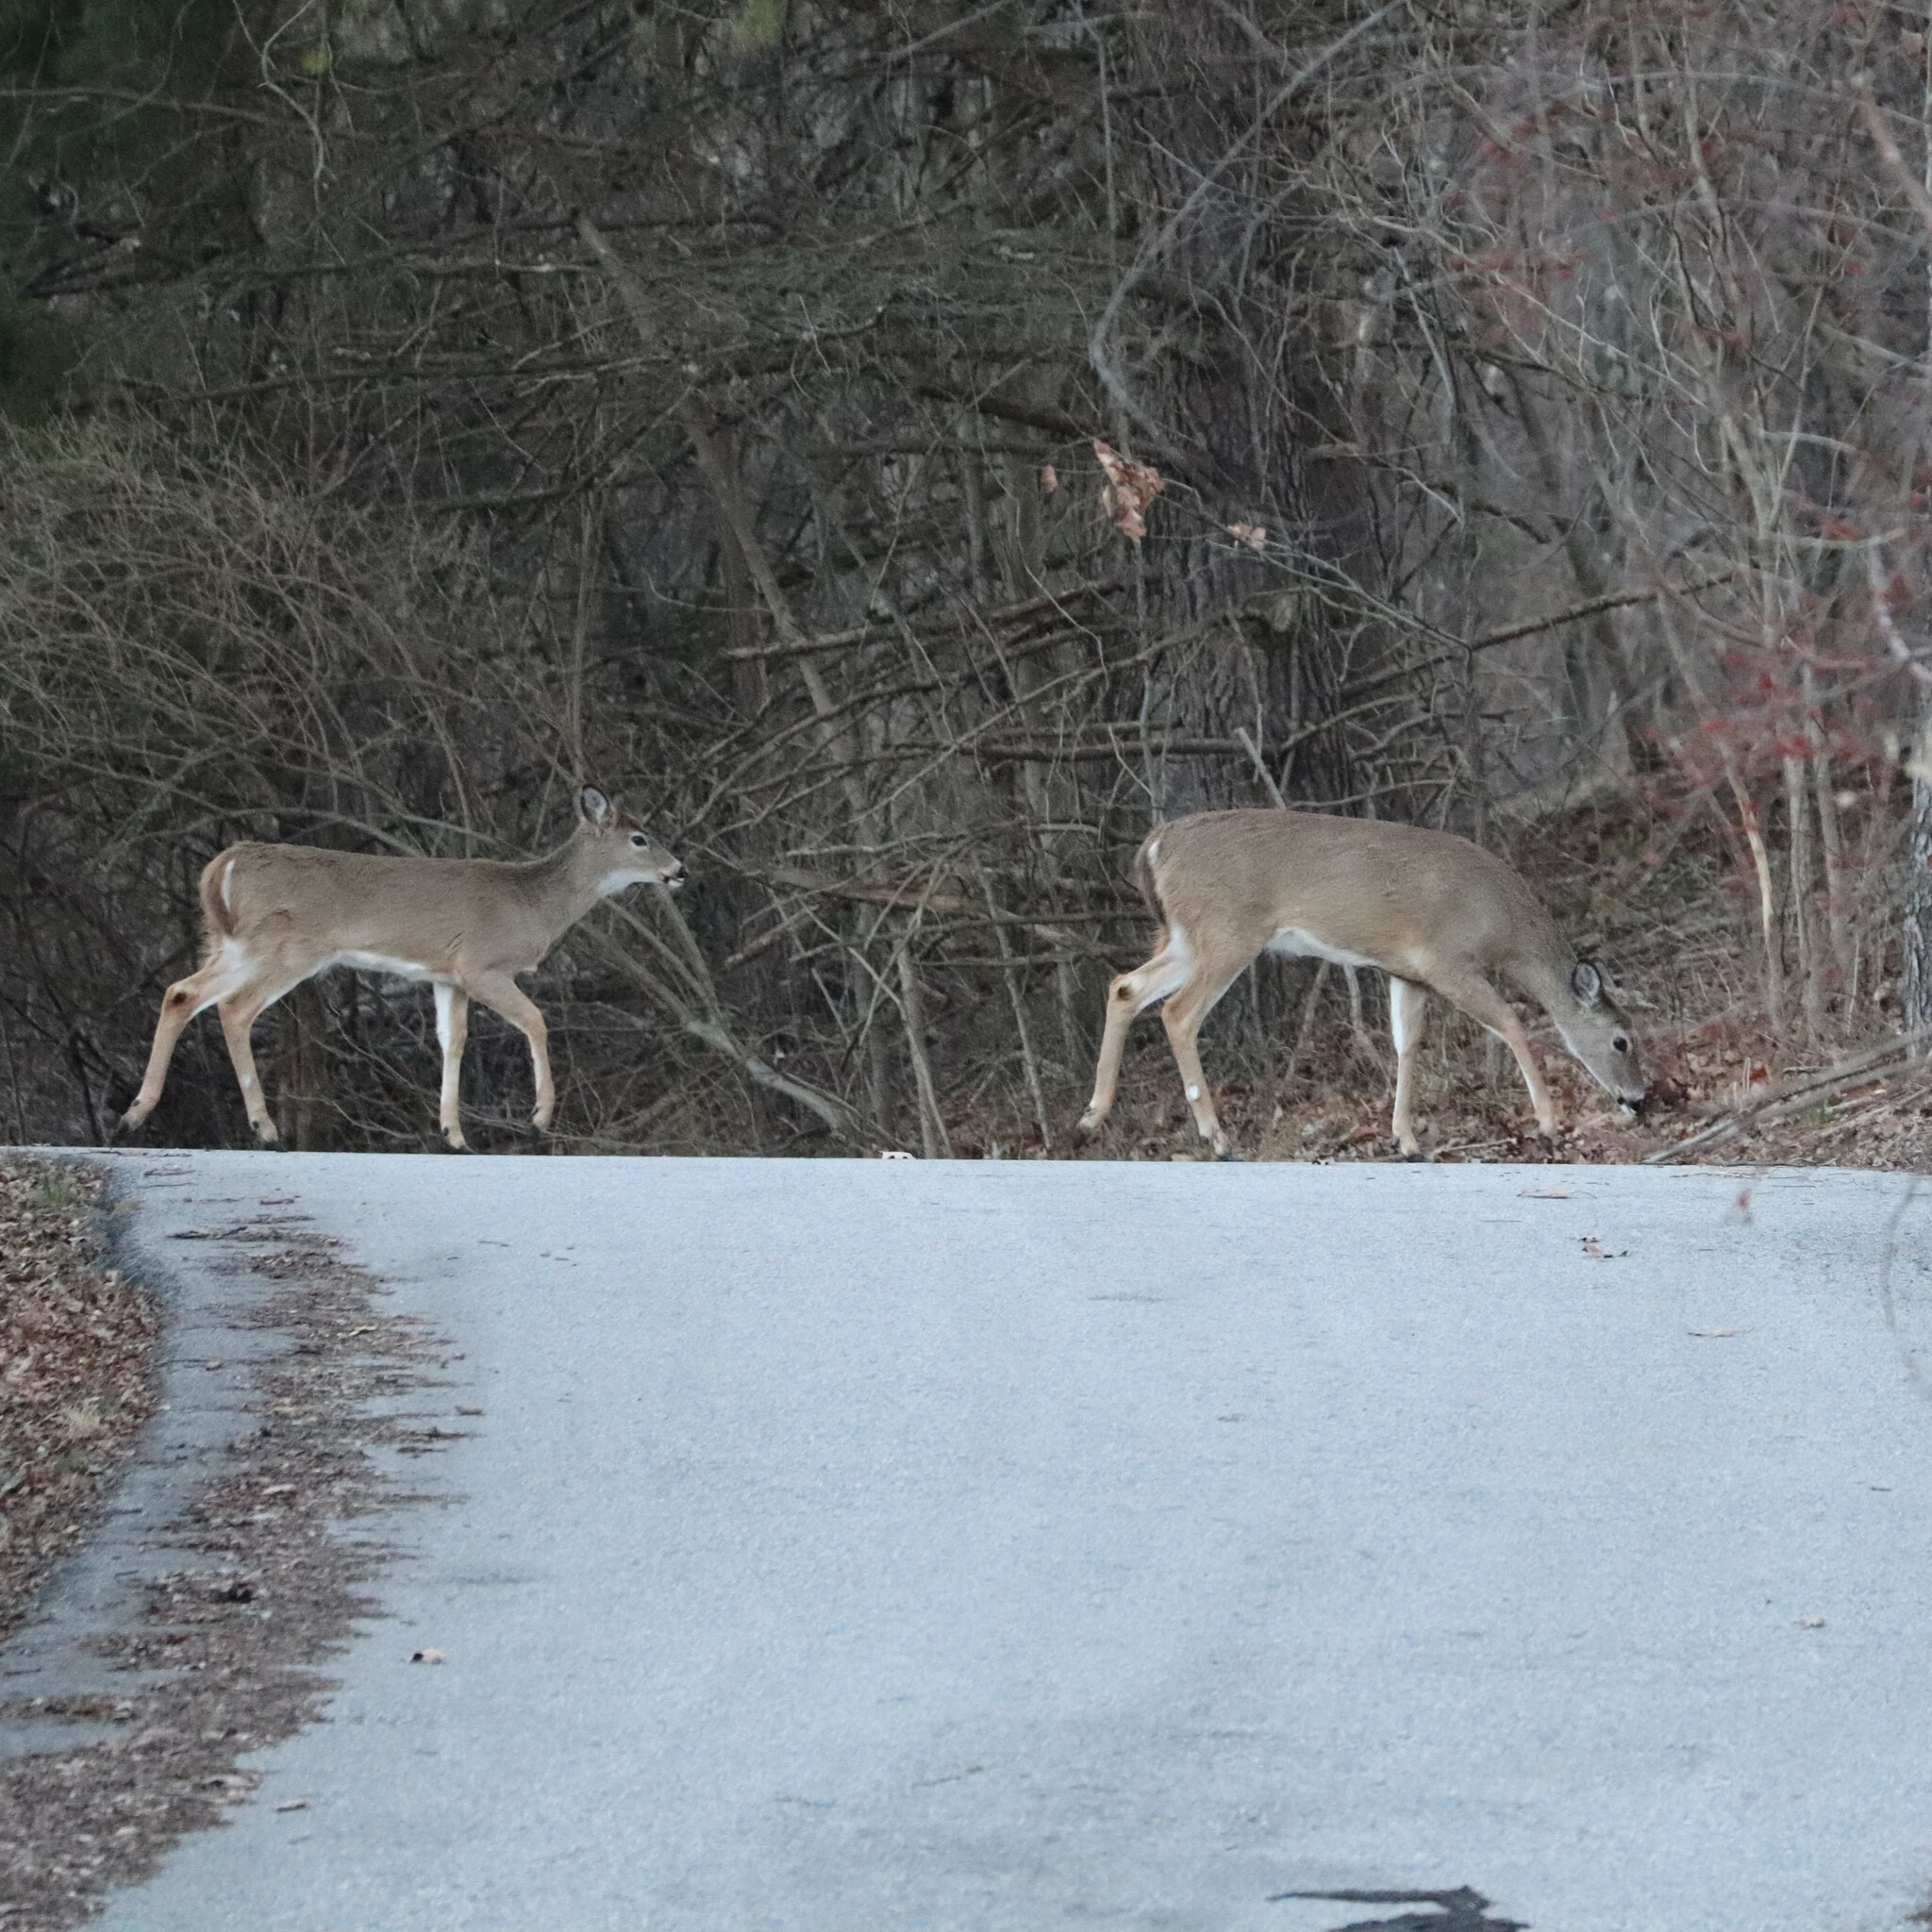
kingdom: Animalia
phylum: Chordata
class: Mammalia
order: Artiodactyla
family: Cervidae
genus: Odocoileus
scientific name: Odocoileus virginianus
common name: White-tailed deer
